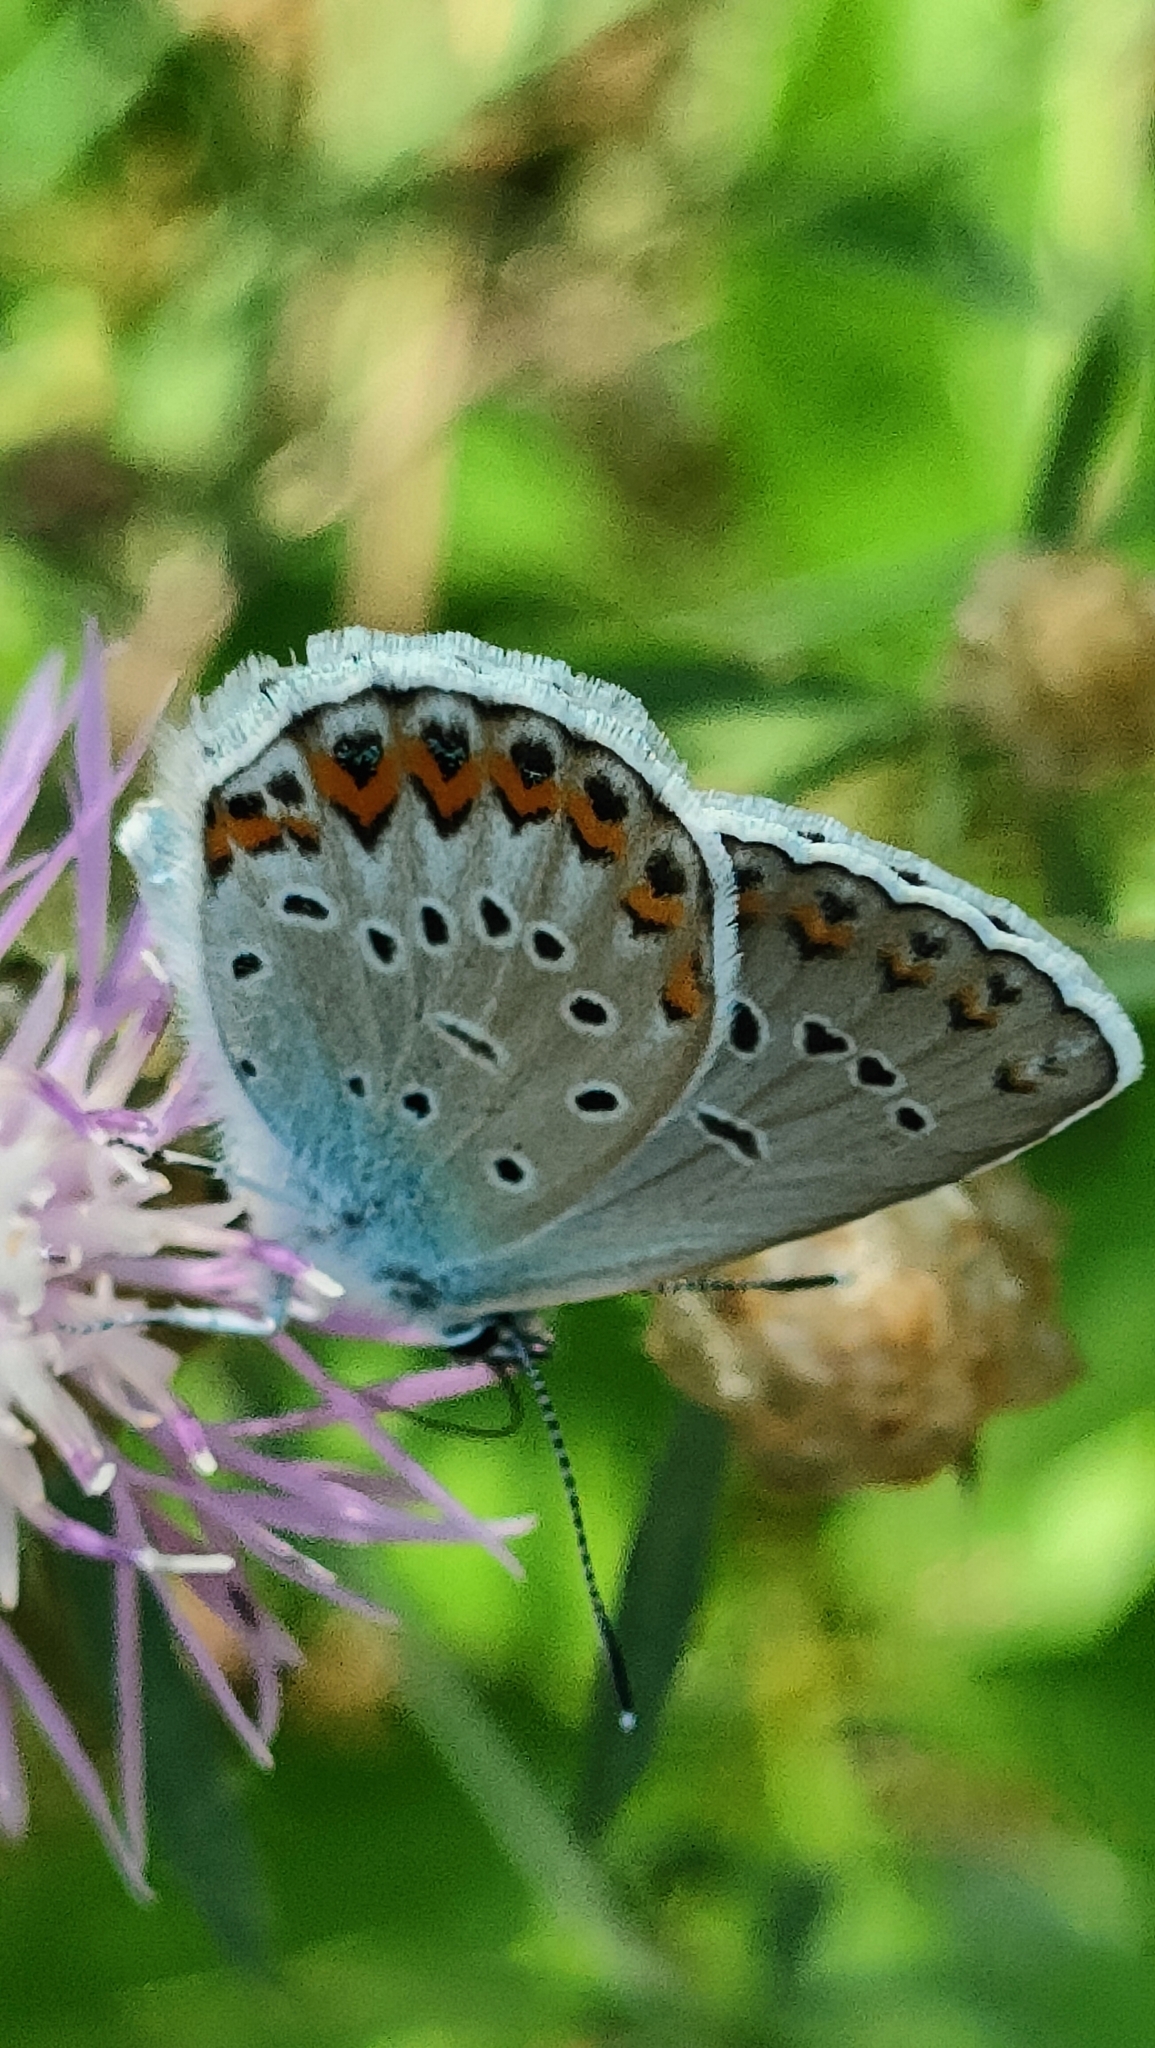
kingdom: Animalia
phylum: Arthropoda
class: Insecta
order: Lepidoptera
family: Lycaenidae
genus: Lycaeides
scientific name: Lycaeides idas
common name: Northern blue
